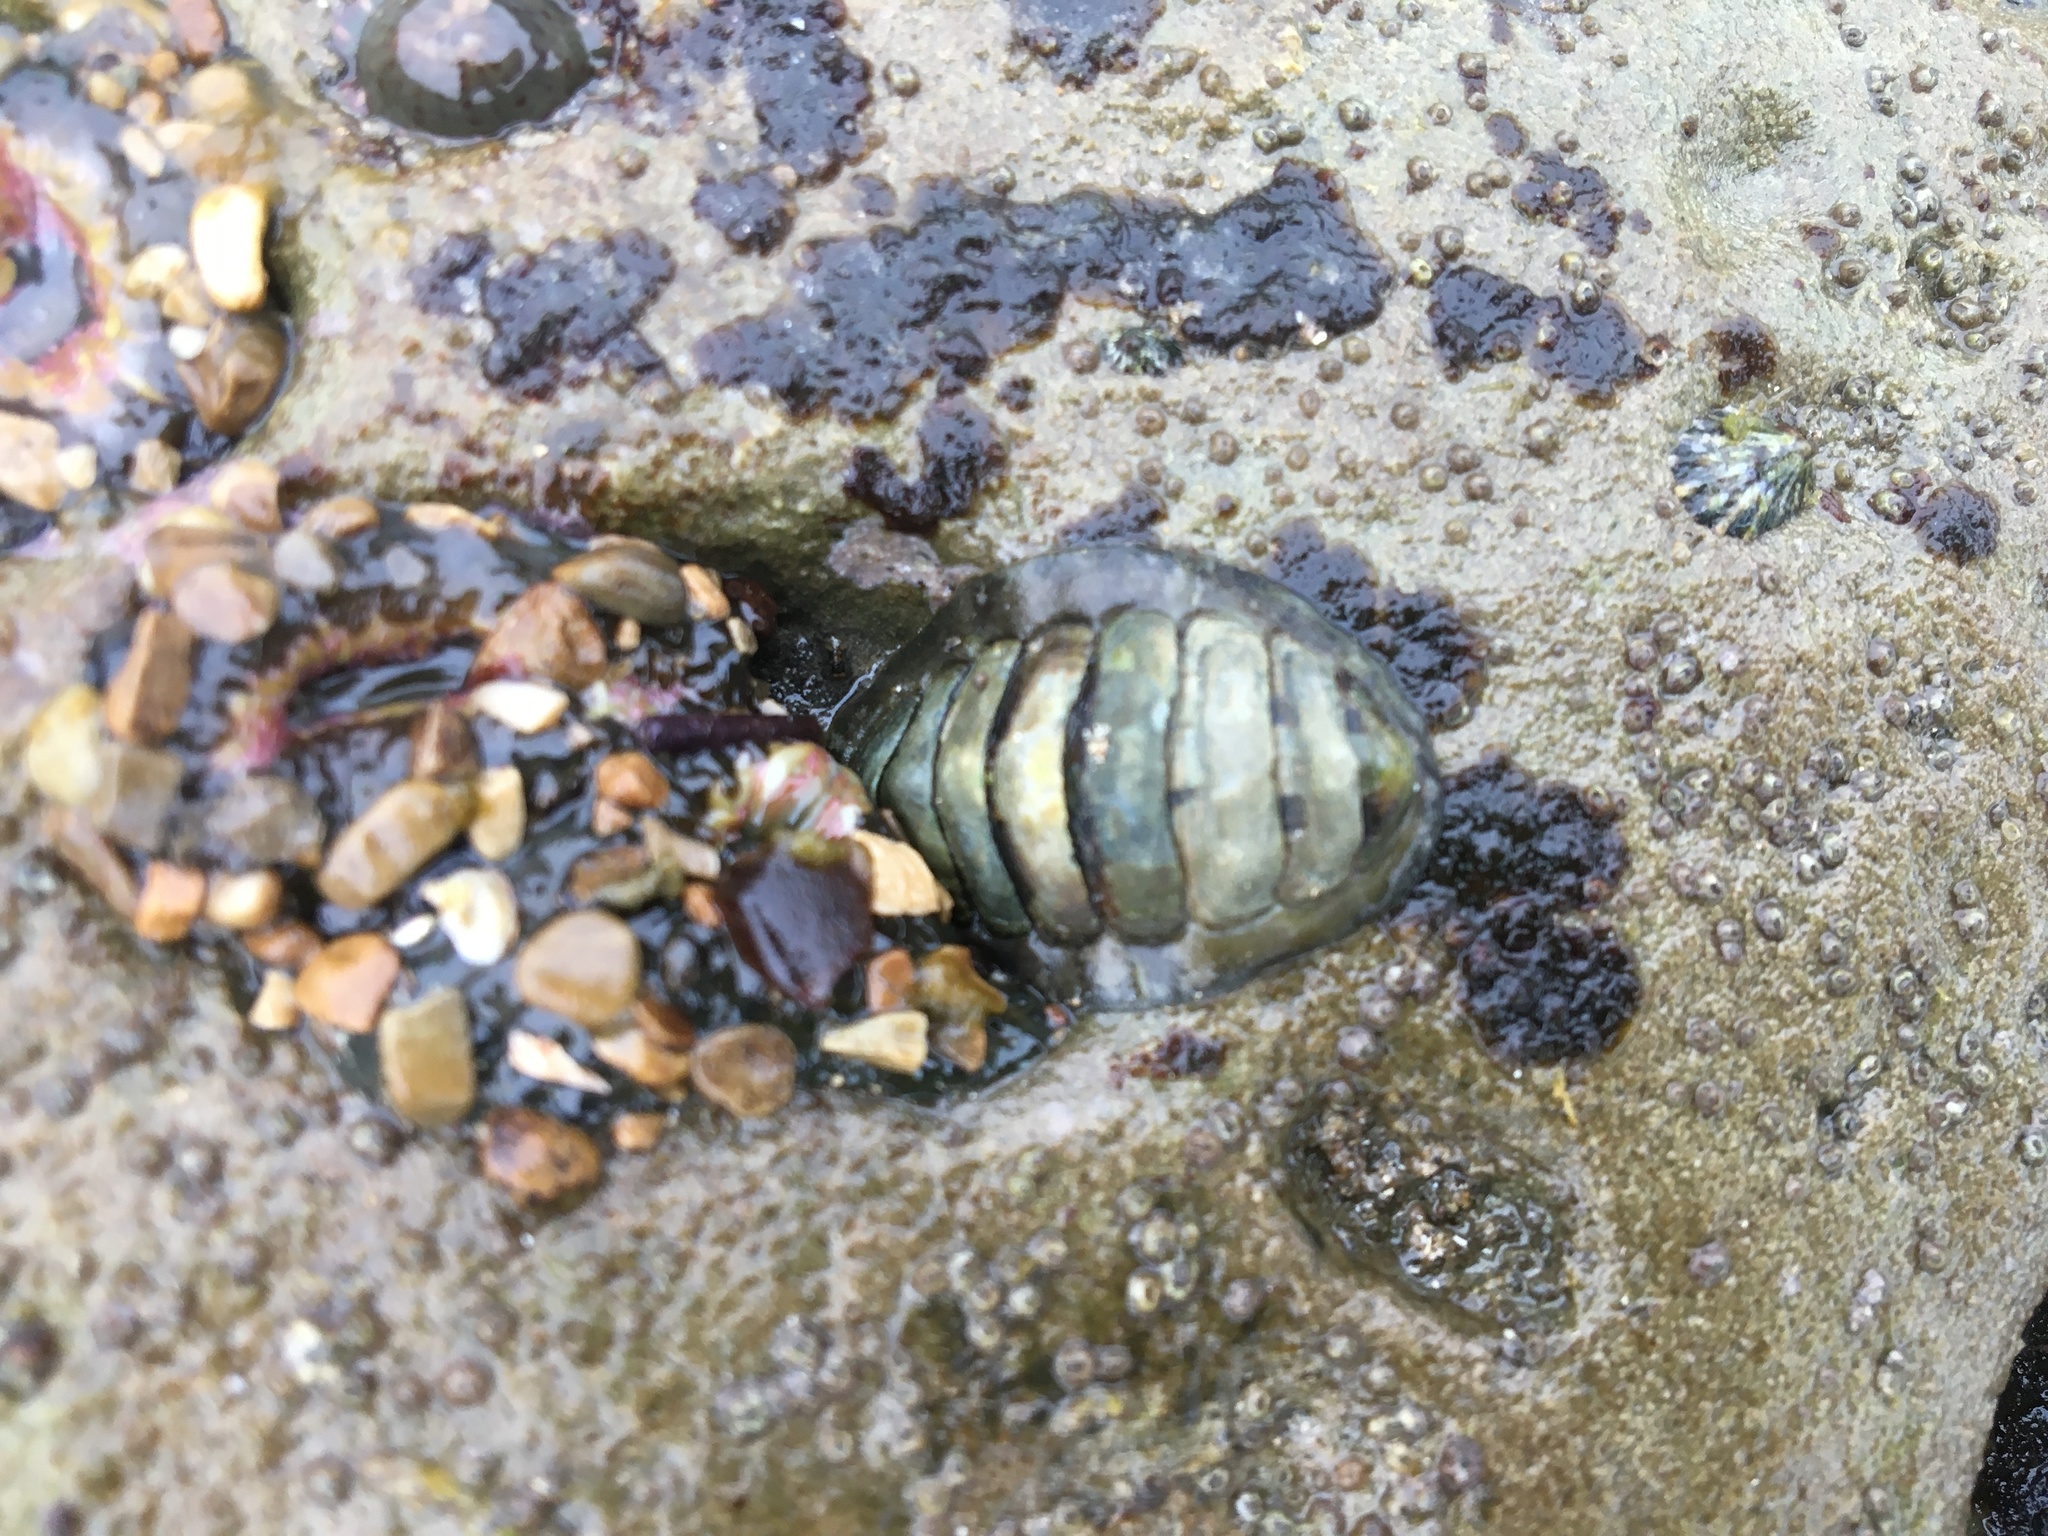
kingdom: Animalia
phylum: Mollusca
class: Polyplacophora
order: Chitonida
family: Tonicellidae
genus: Cyanoplax
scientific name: Cyanoplax hartwegii
